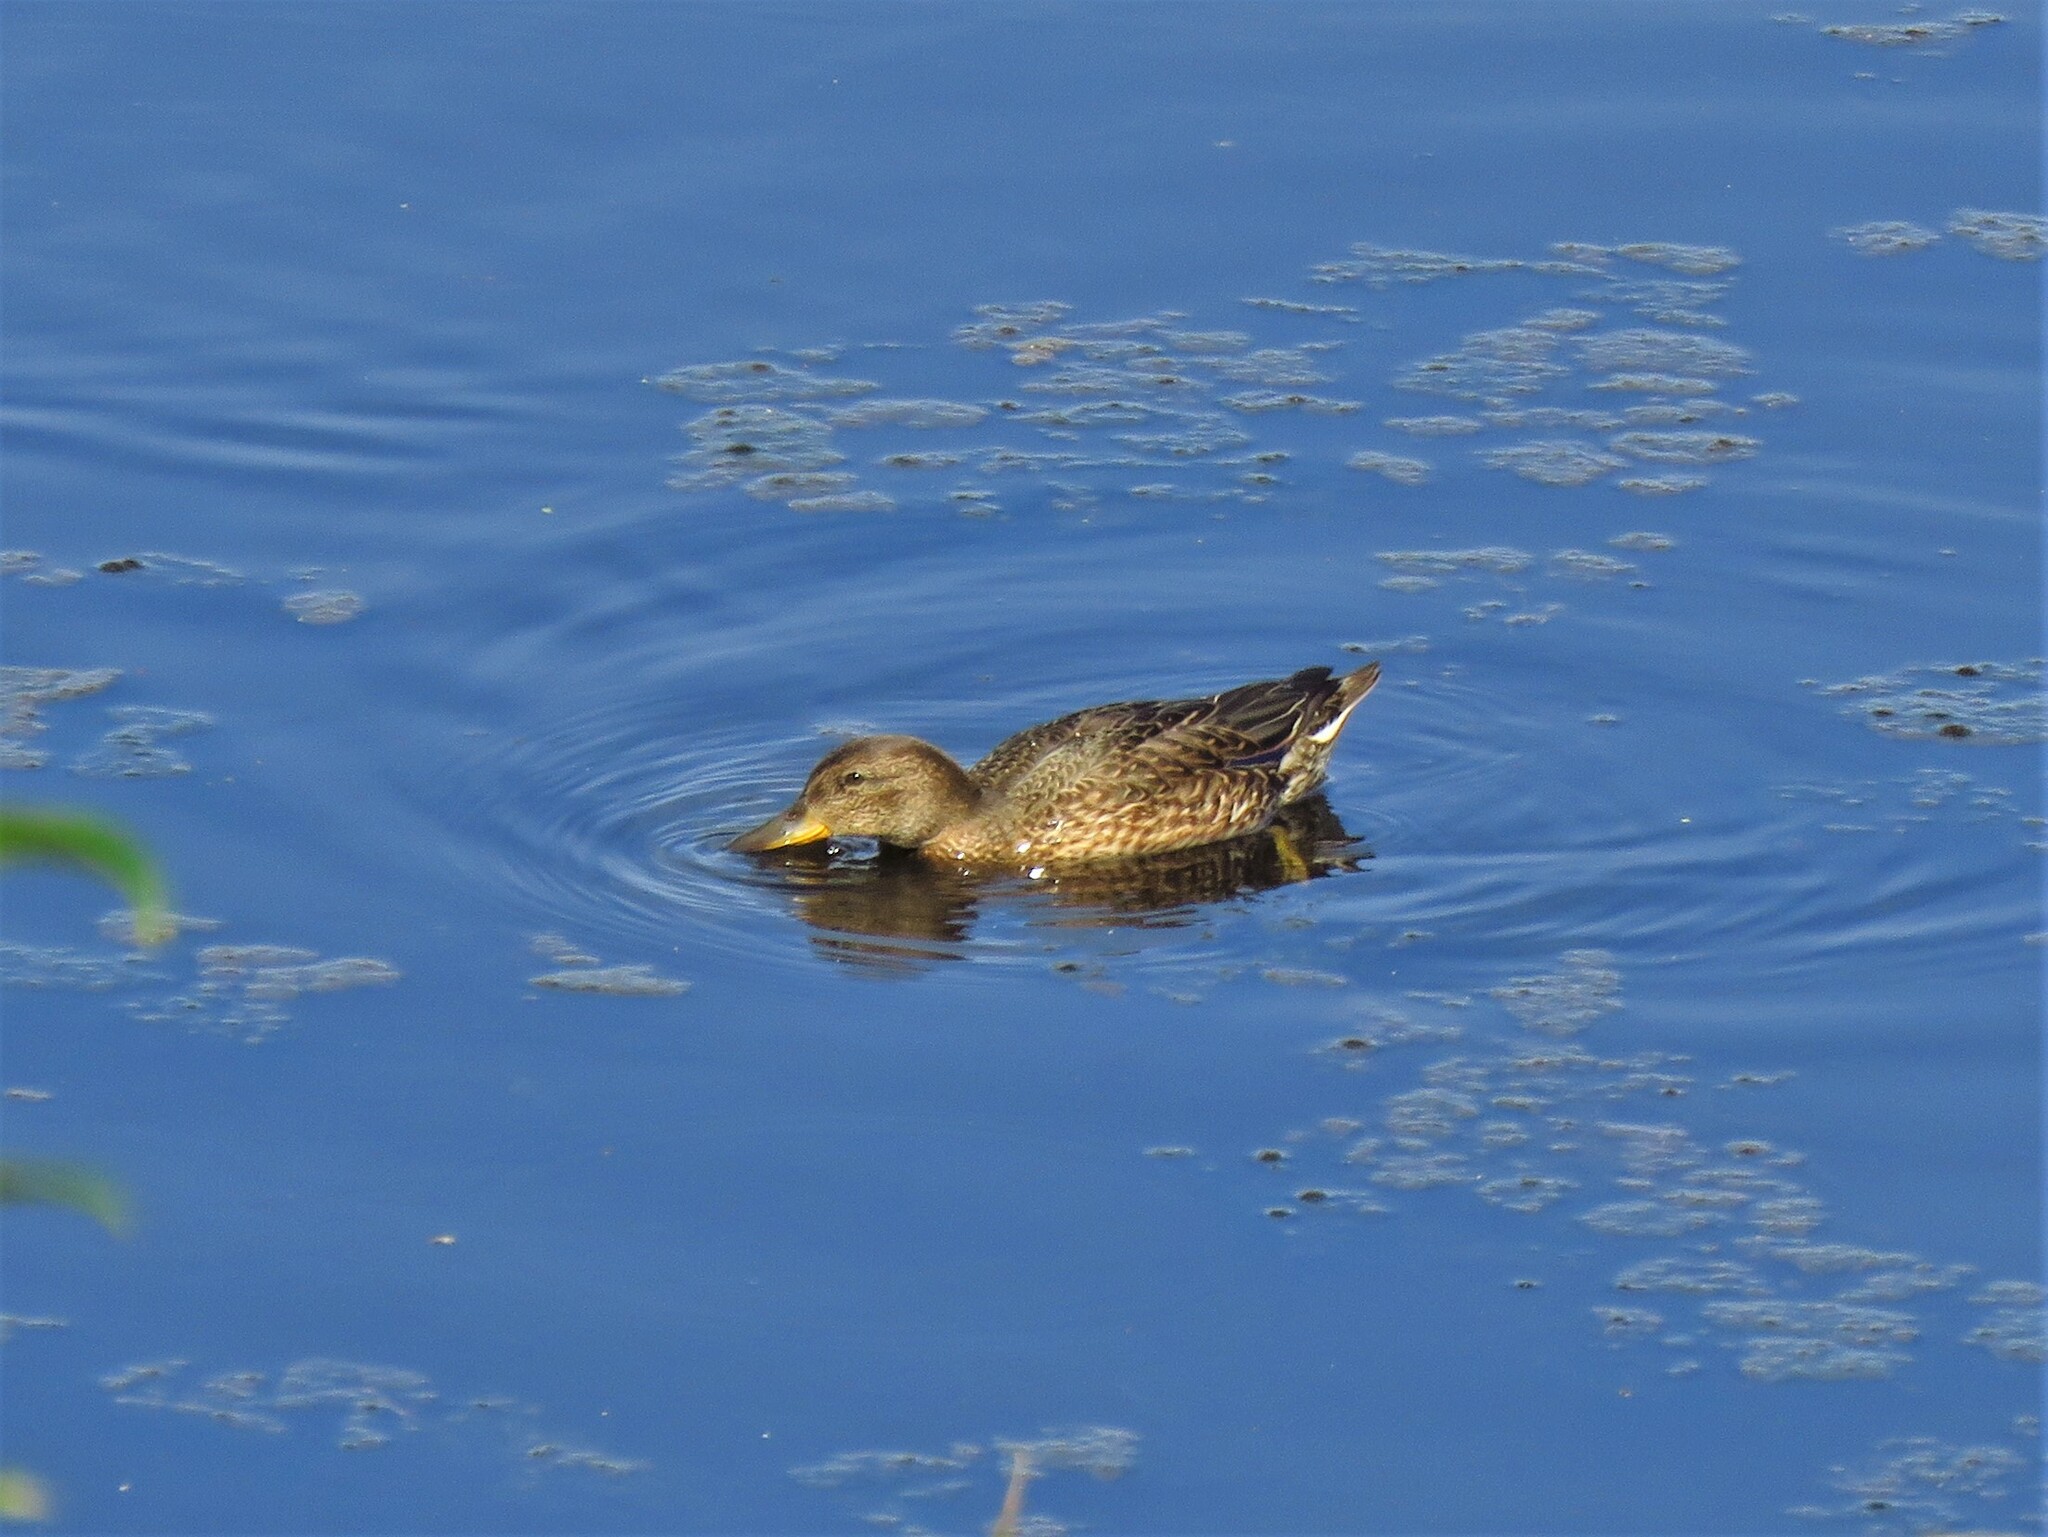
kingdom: Animalia
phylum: Chordata
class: Aves
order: Anseriformes
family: Anatidae
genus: Anas
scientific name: Anas platyrhynchos
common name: Mallard
